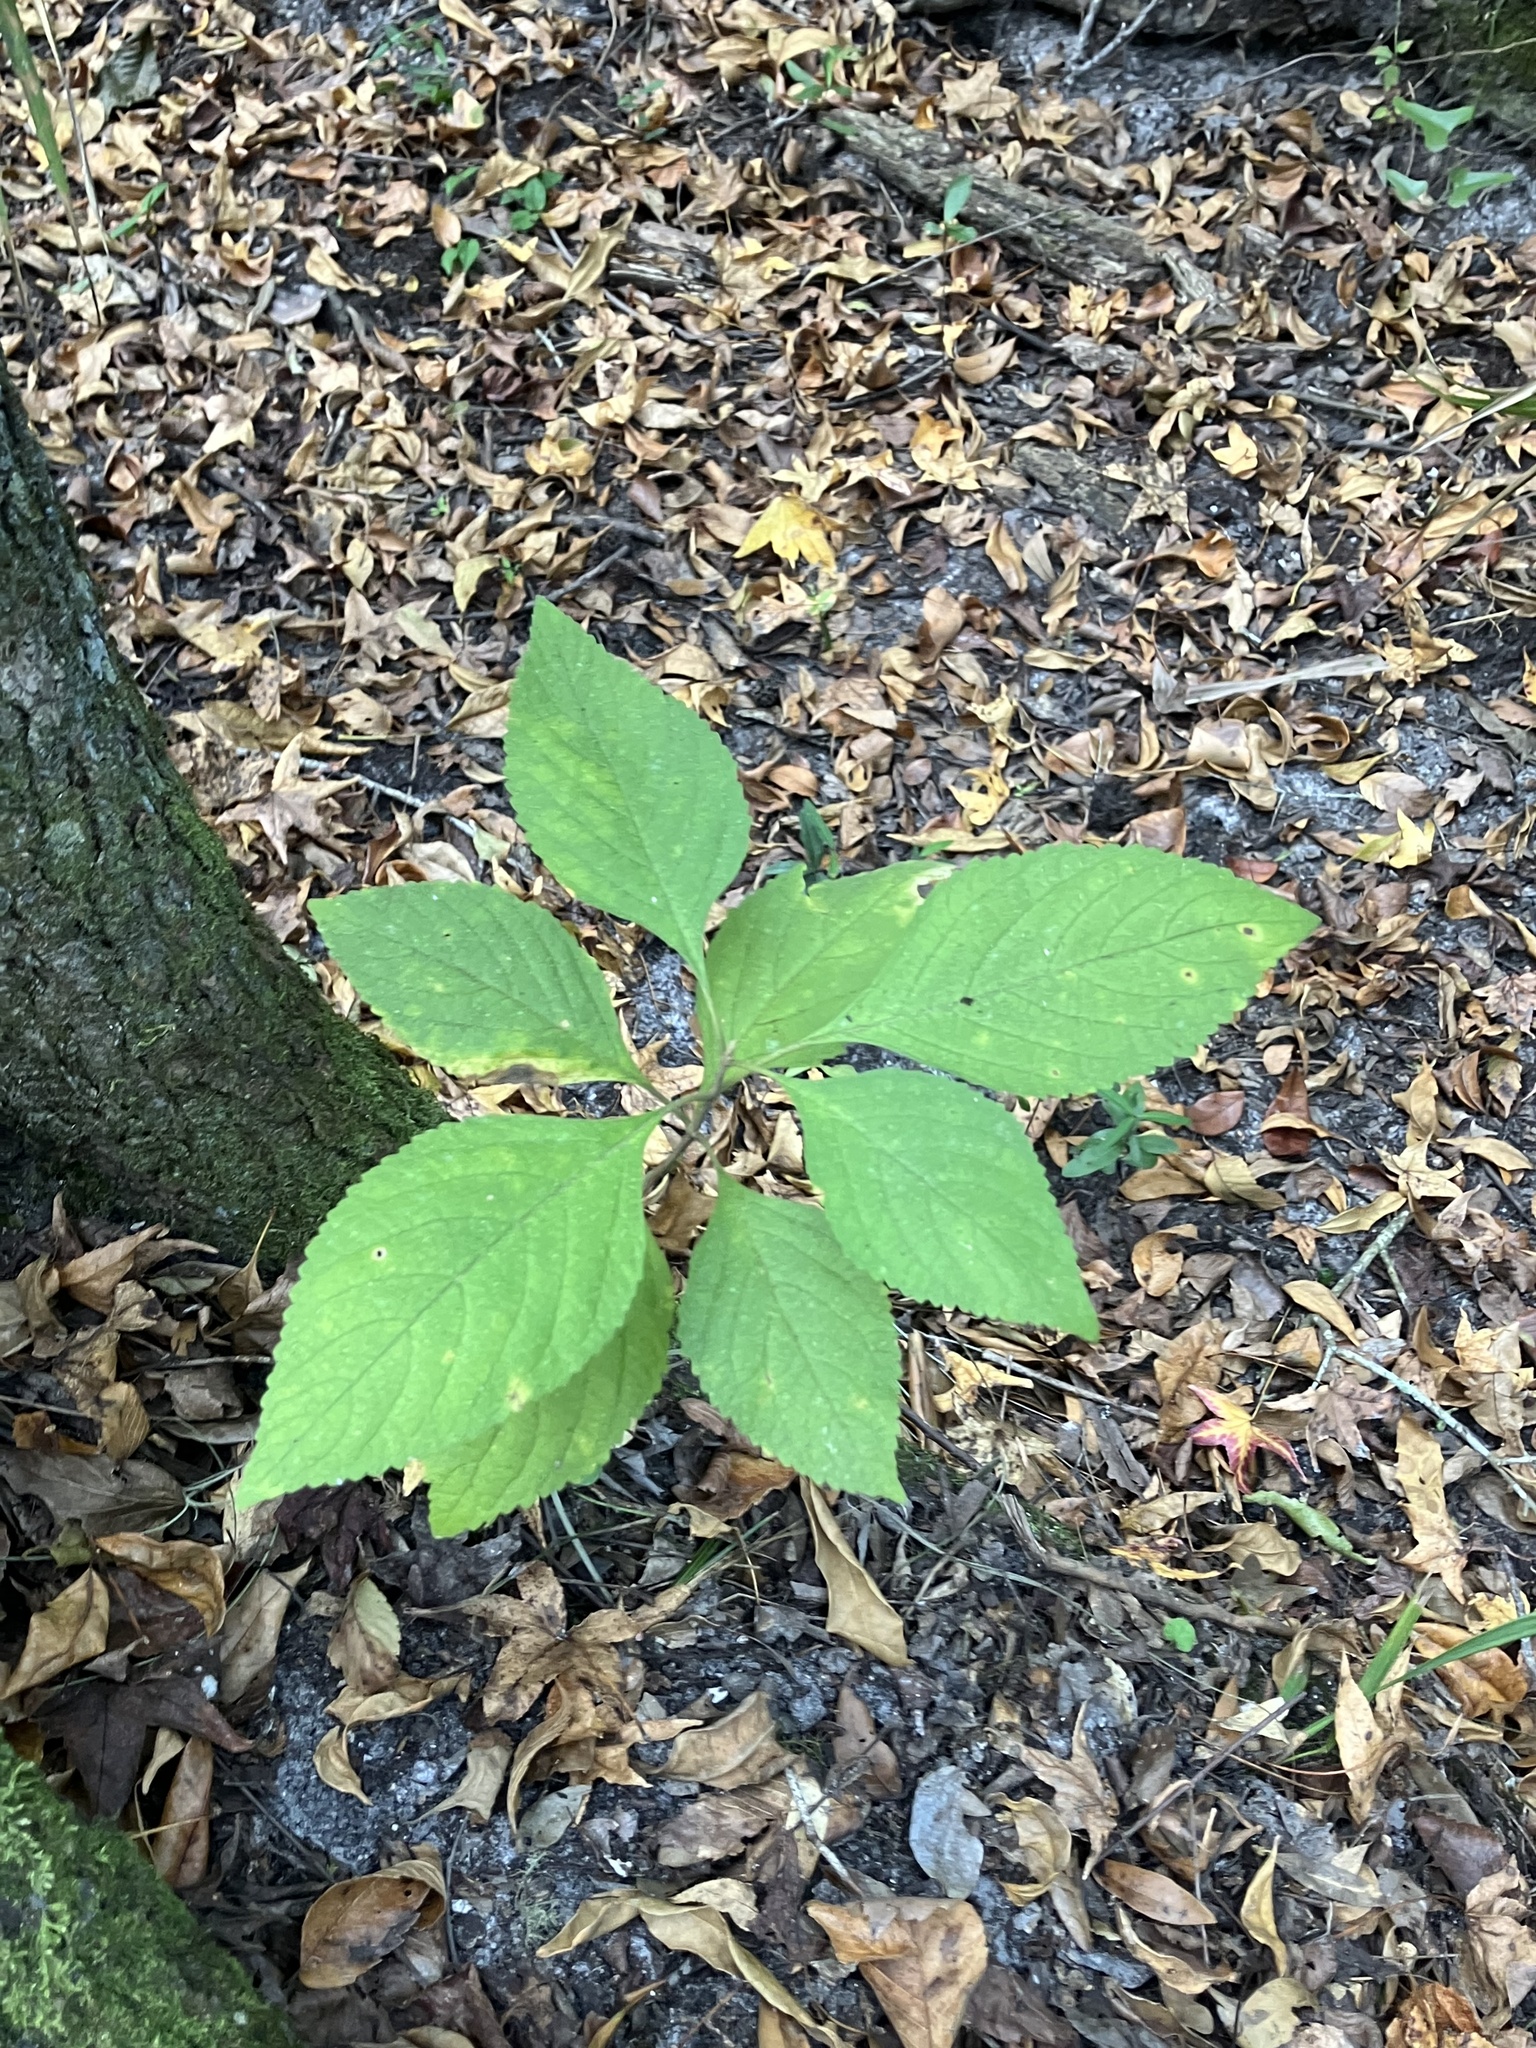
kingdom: Plantae
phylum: Tracheophyta
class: Magnoliopsida
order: Lamiales
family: Lamiaceae
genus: Callicarpa
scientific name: Callicarpa americana
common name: American beautyberry
